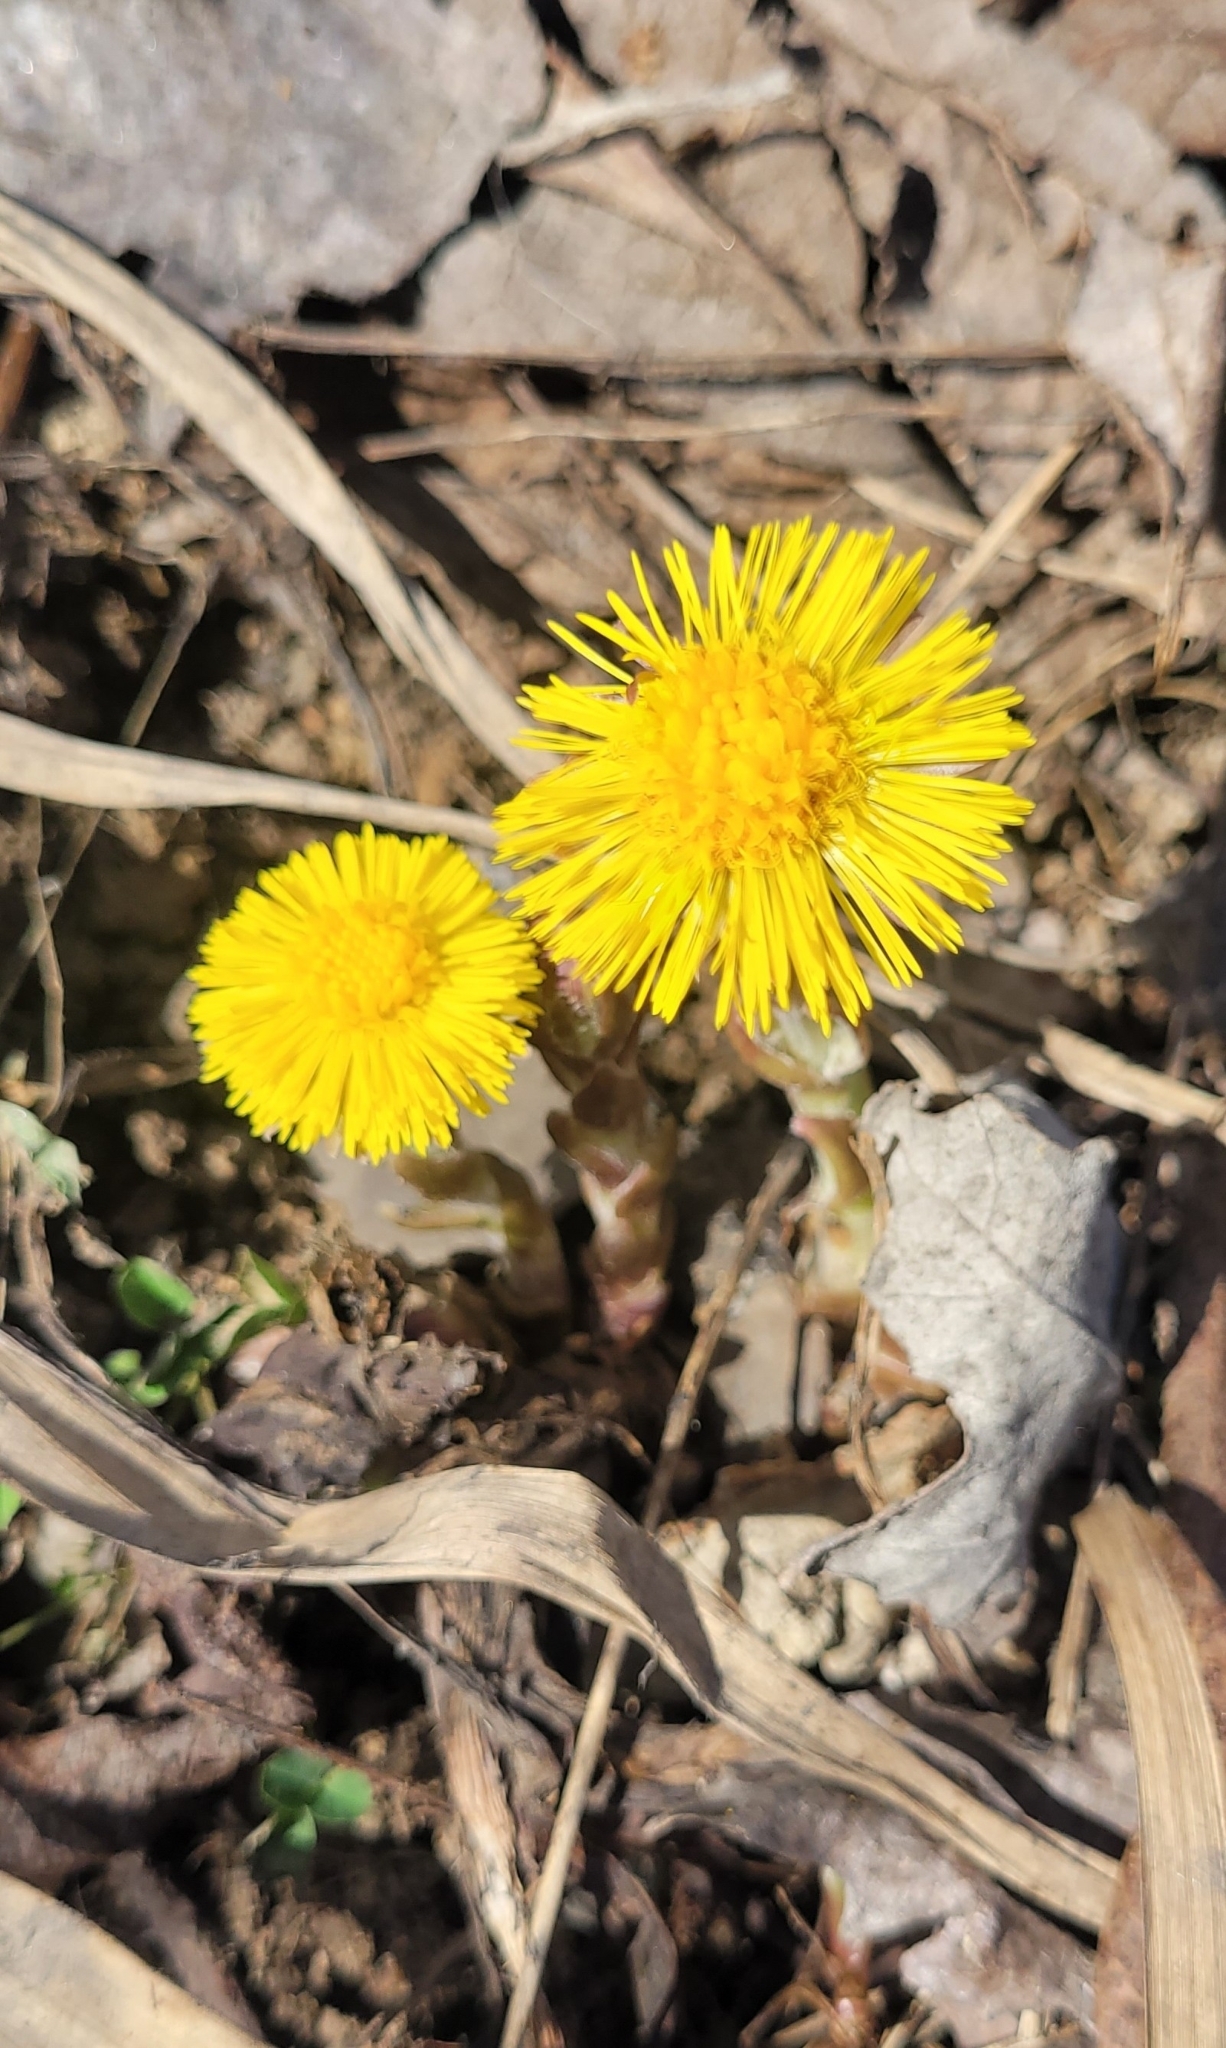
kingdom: Plantae
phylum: Tracheophyta
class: Magnoliopsida
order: Asterales
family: Asteraceae
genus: Tussilago
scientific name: Tussilago farfara
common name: Coltsfoot
